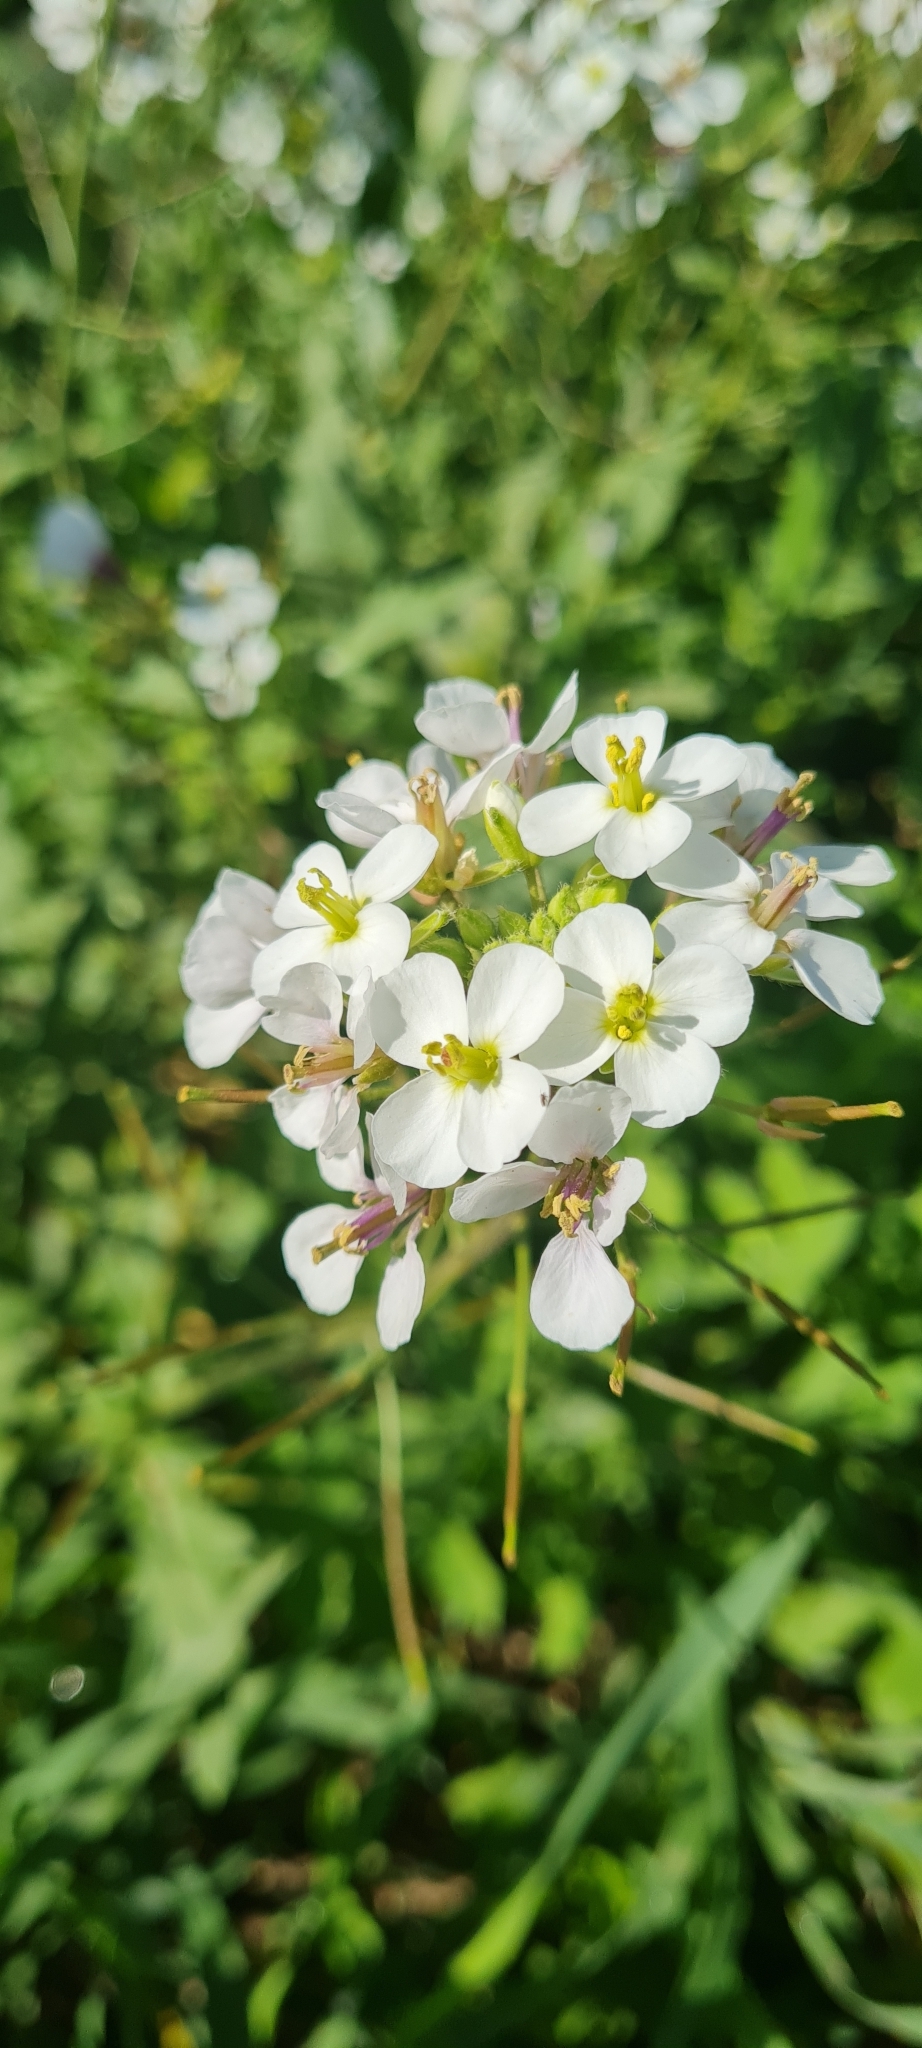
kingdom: Plantae
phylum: Tracheophyta
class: Magnoliopsida
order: Brassicales
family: Brassicaceae
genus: Diplotaxis
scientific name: Diplotaxis erucoides
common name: White rocket
